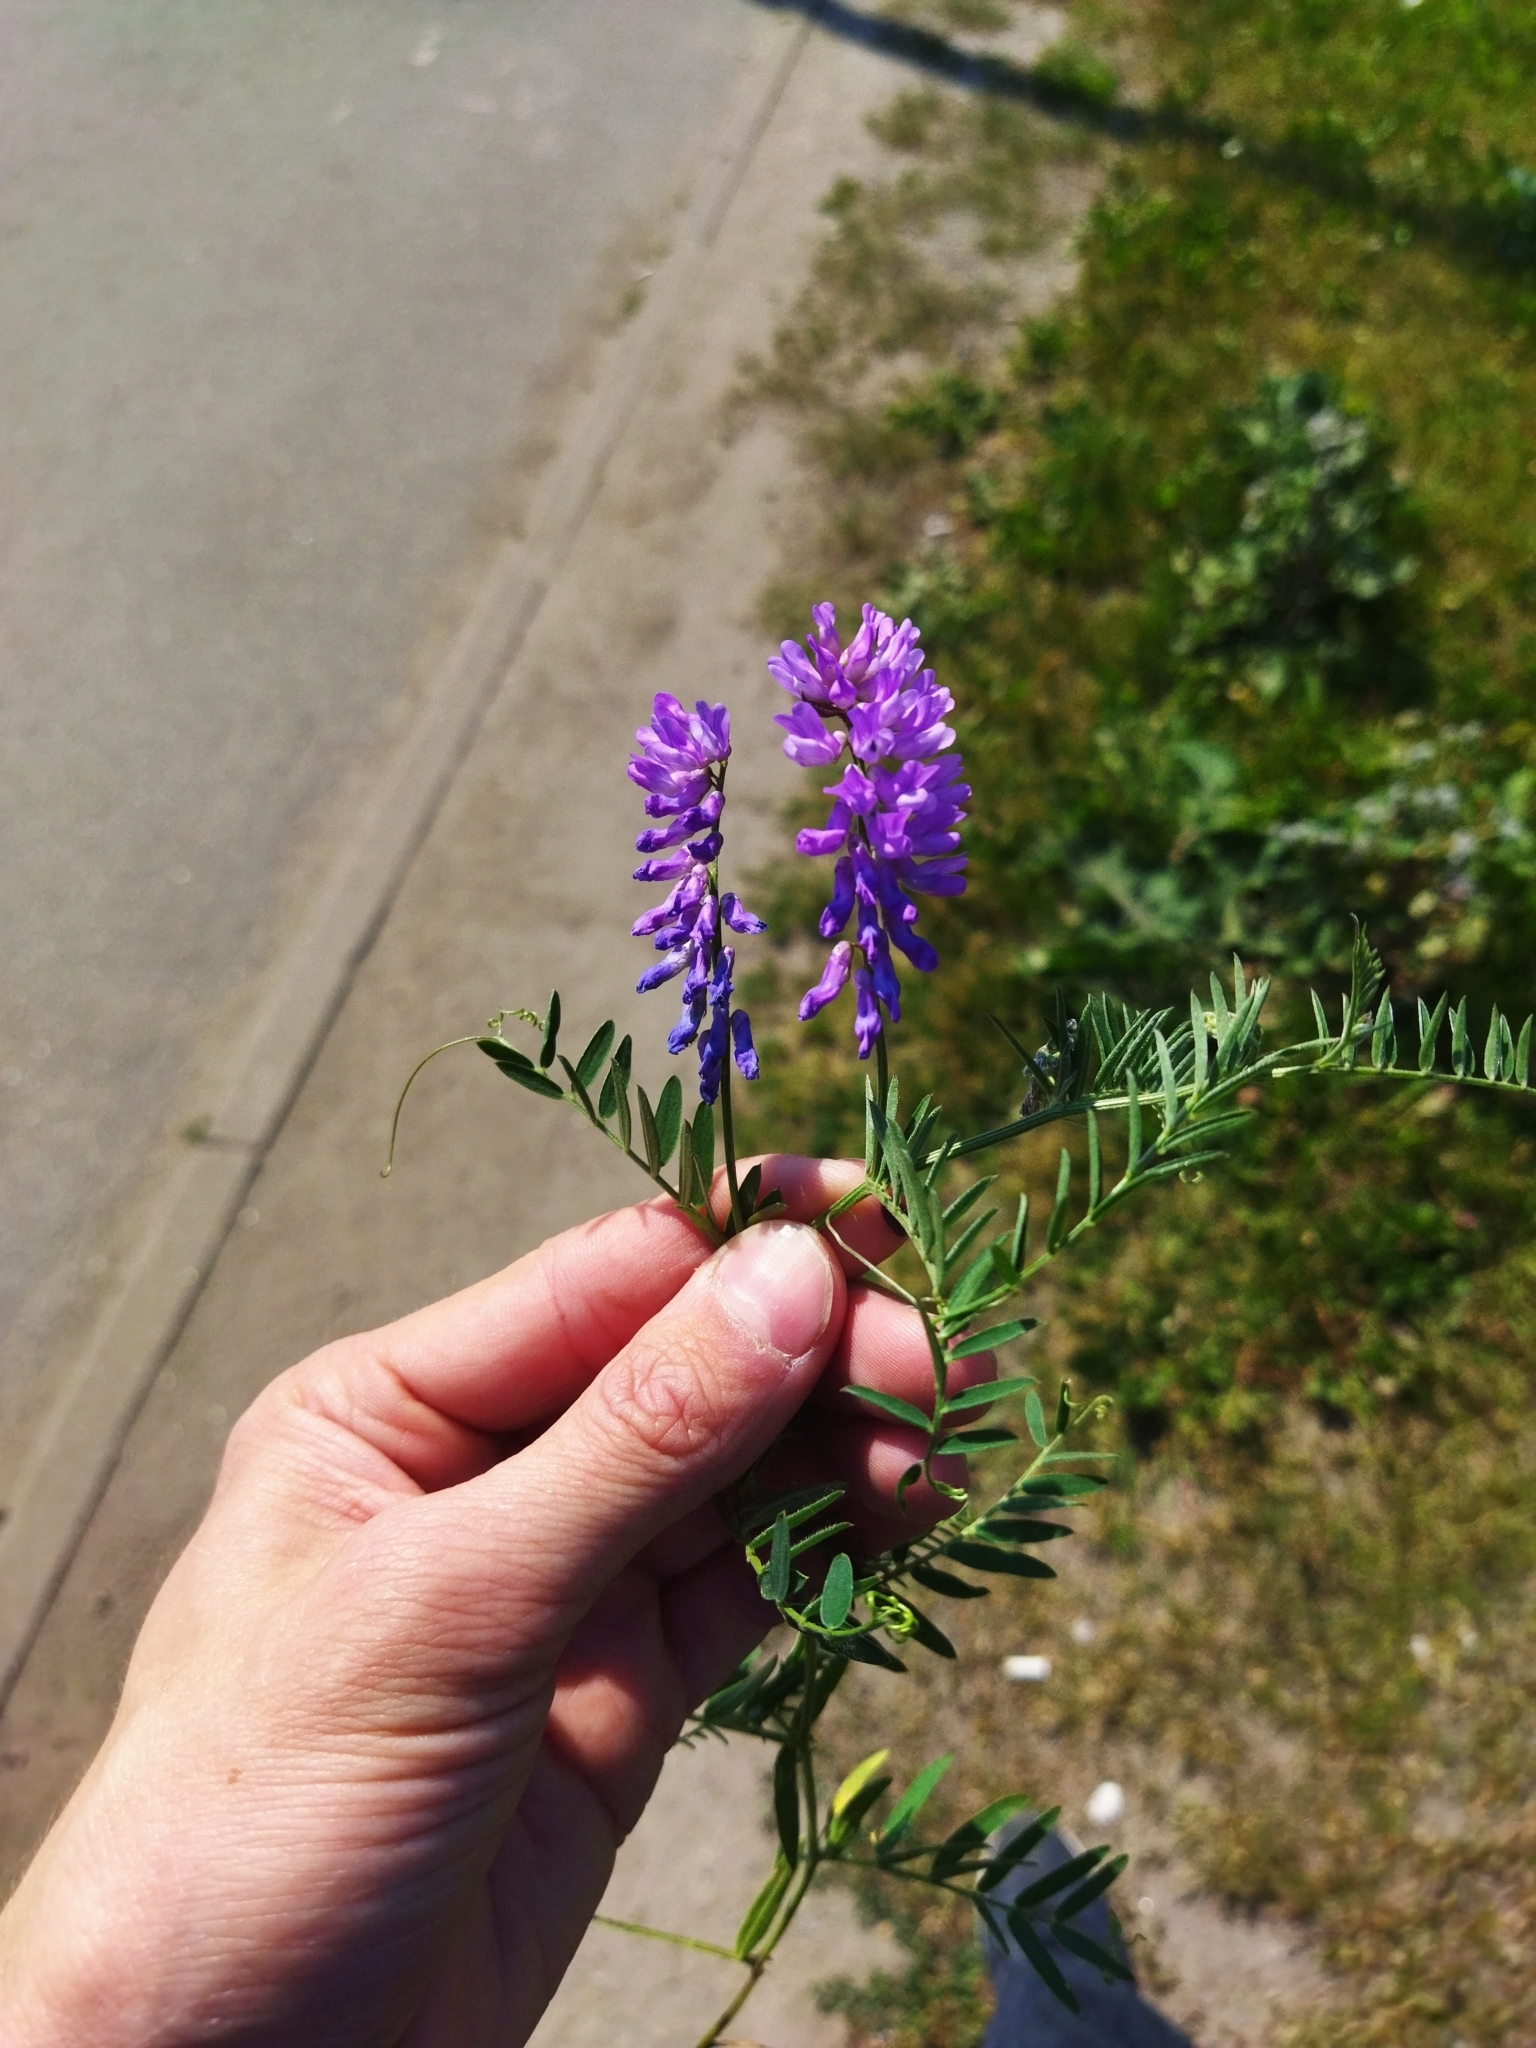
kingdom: Plantae
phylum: Tracheophyta
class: Magnoliopsida
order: Fabales
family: Fabaceae
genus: Vicia
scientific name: Vicia cracca
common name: Bird vetch
